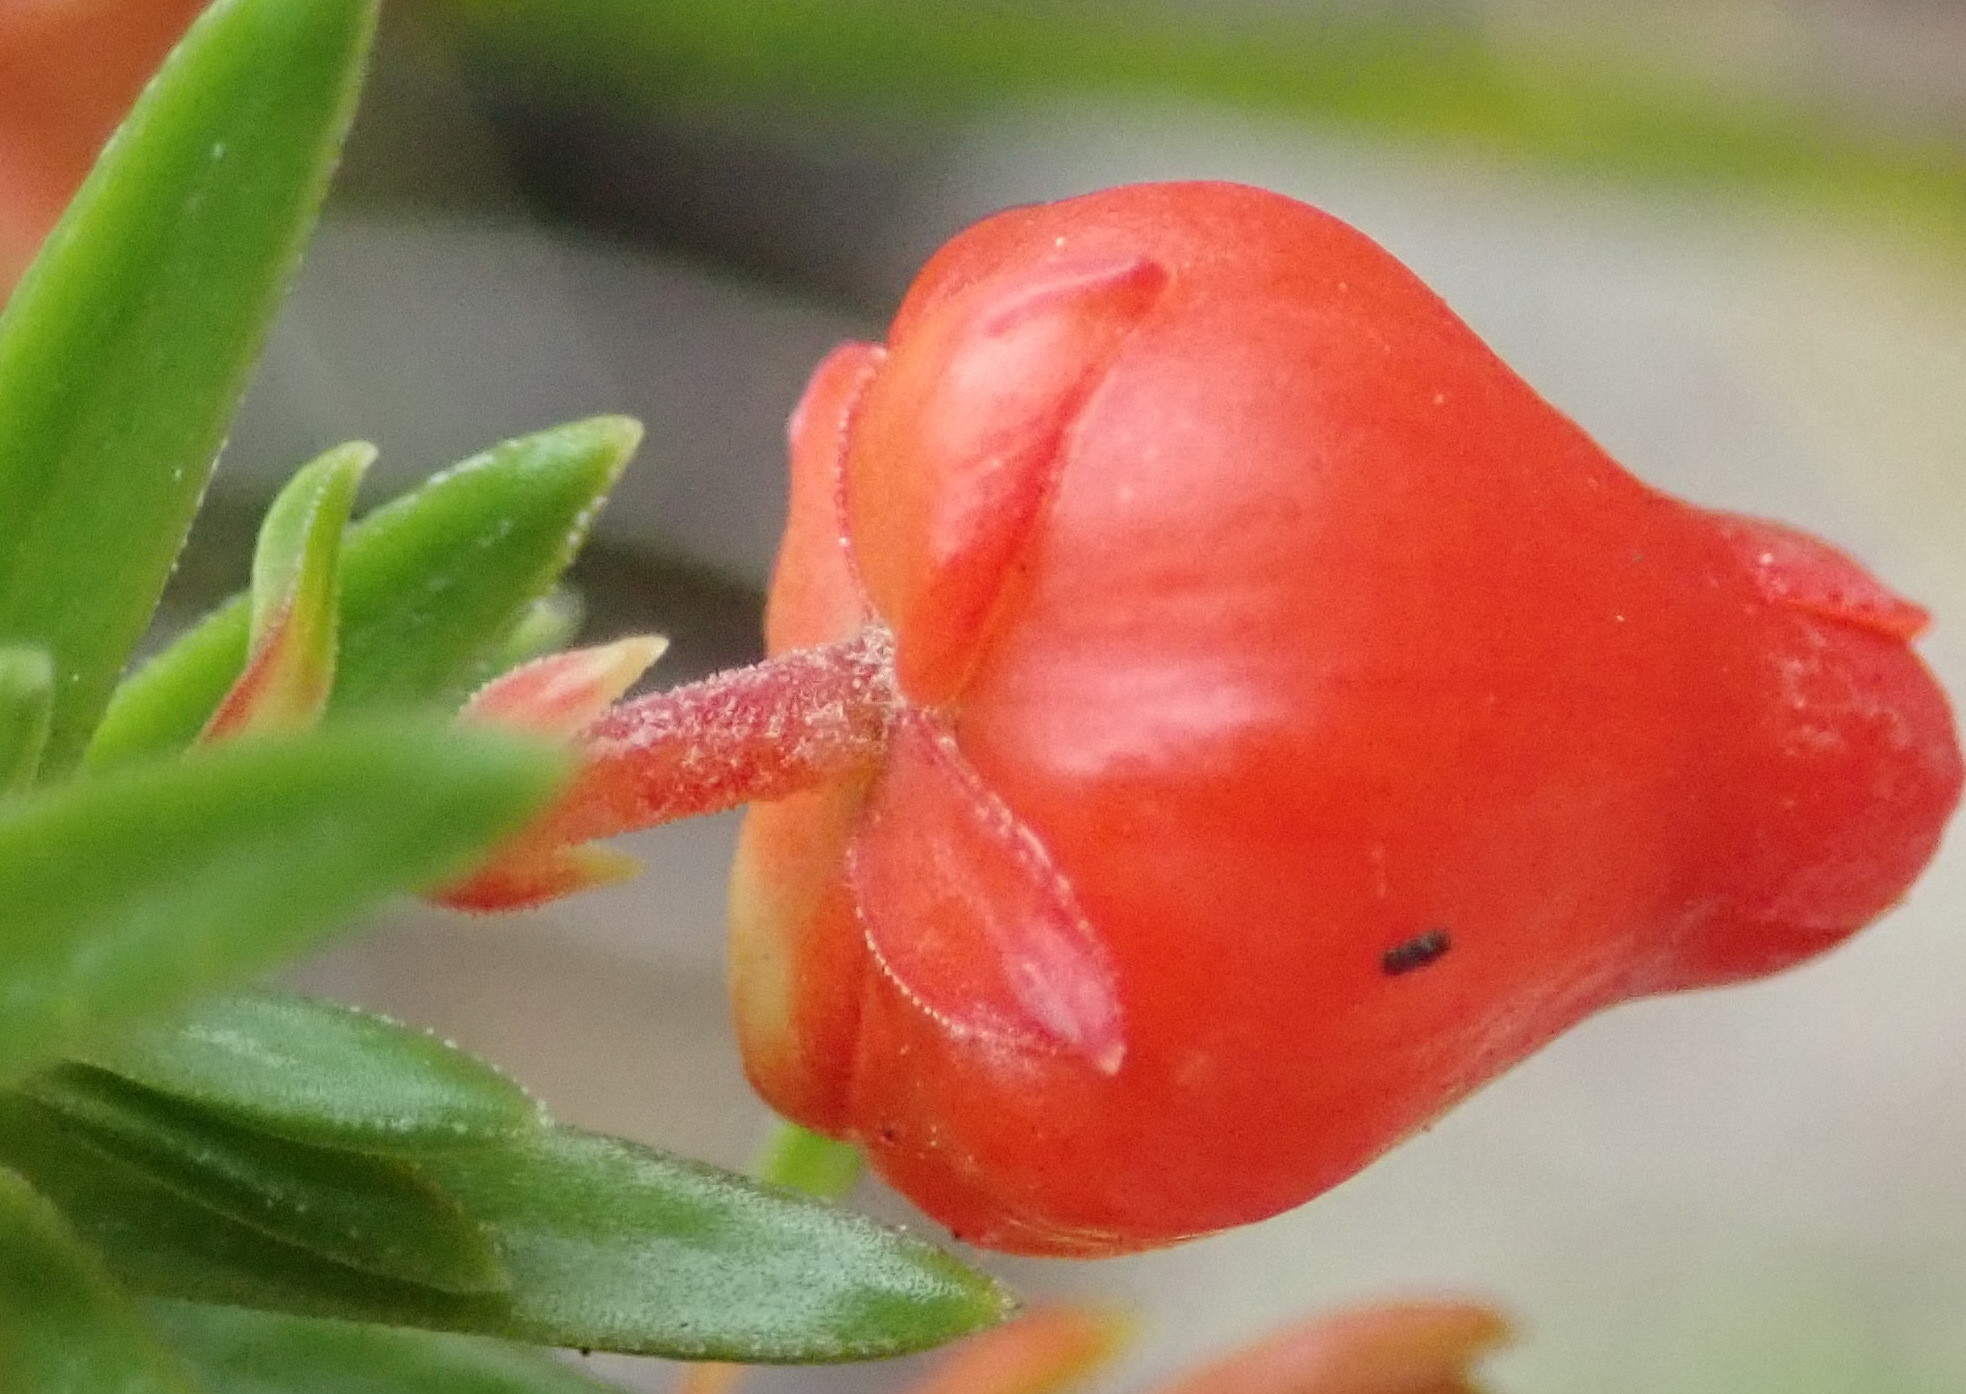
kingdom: Plantae
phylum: Tracheophyta
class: Magnoliopsida
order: Ericales
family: Ericaceae
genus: Erica
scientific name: Erica ardens
